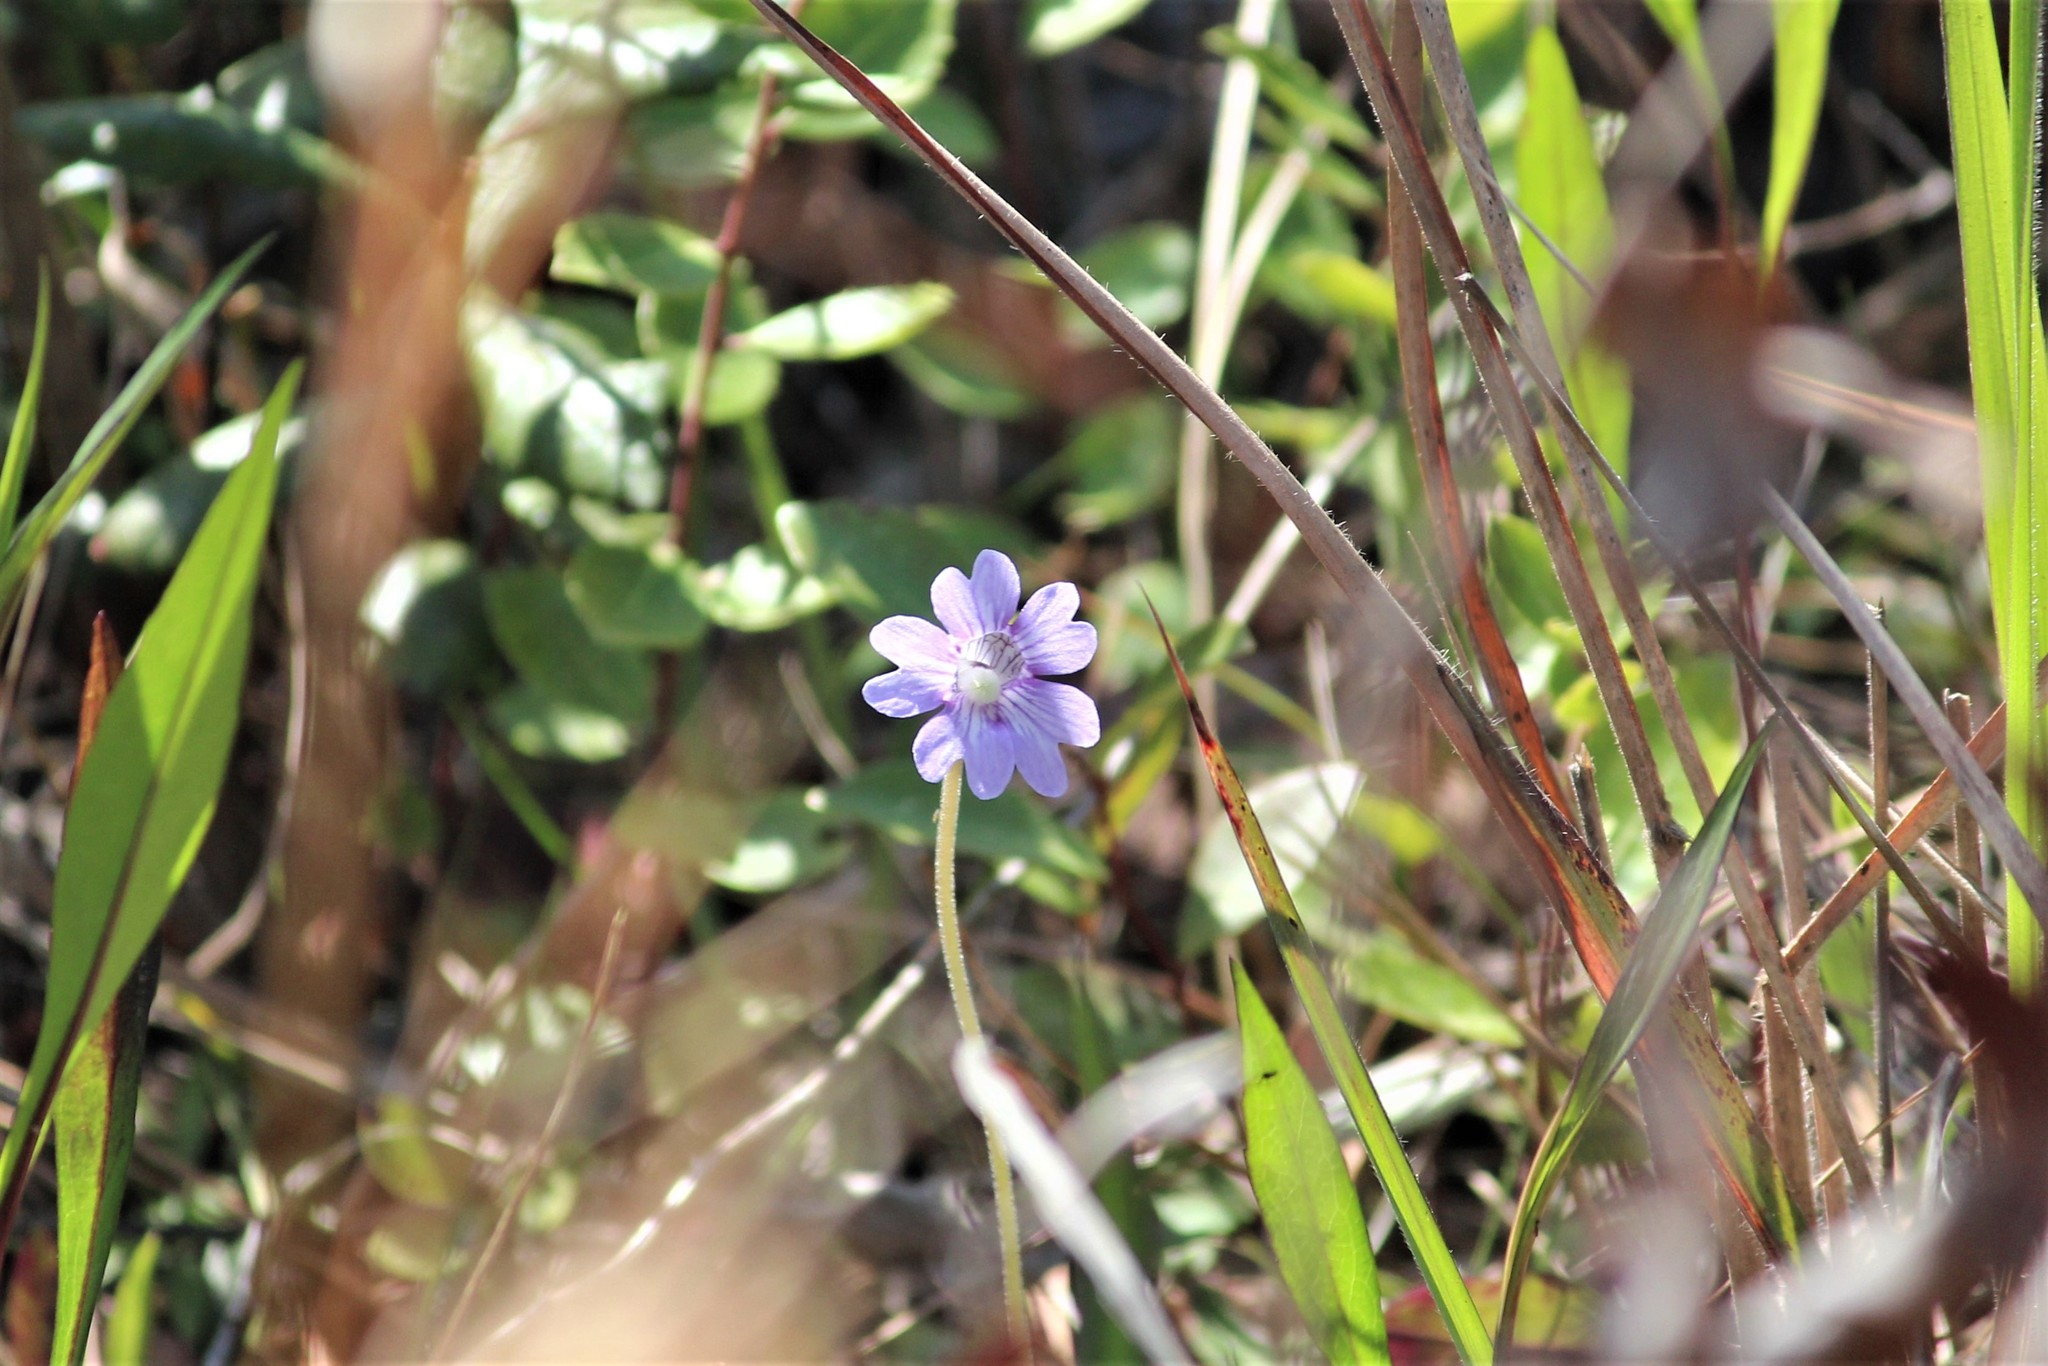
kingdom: Plantae
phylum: Tracheophyta
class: Magnoliopsida
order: Lamiales
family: Lentibulariaceae
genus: Pinguicula
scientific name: Pinguicula caerulea
